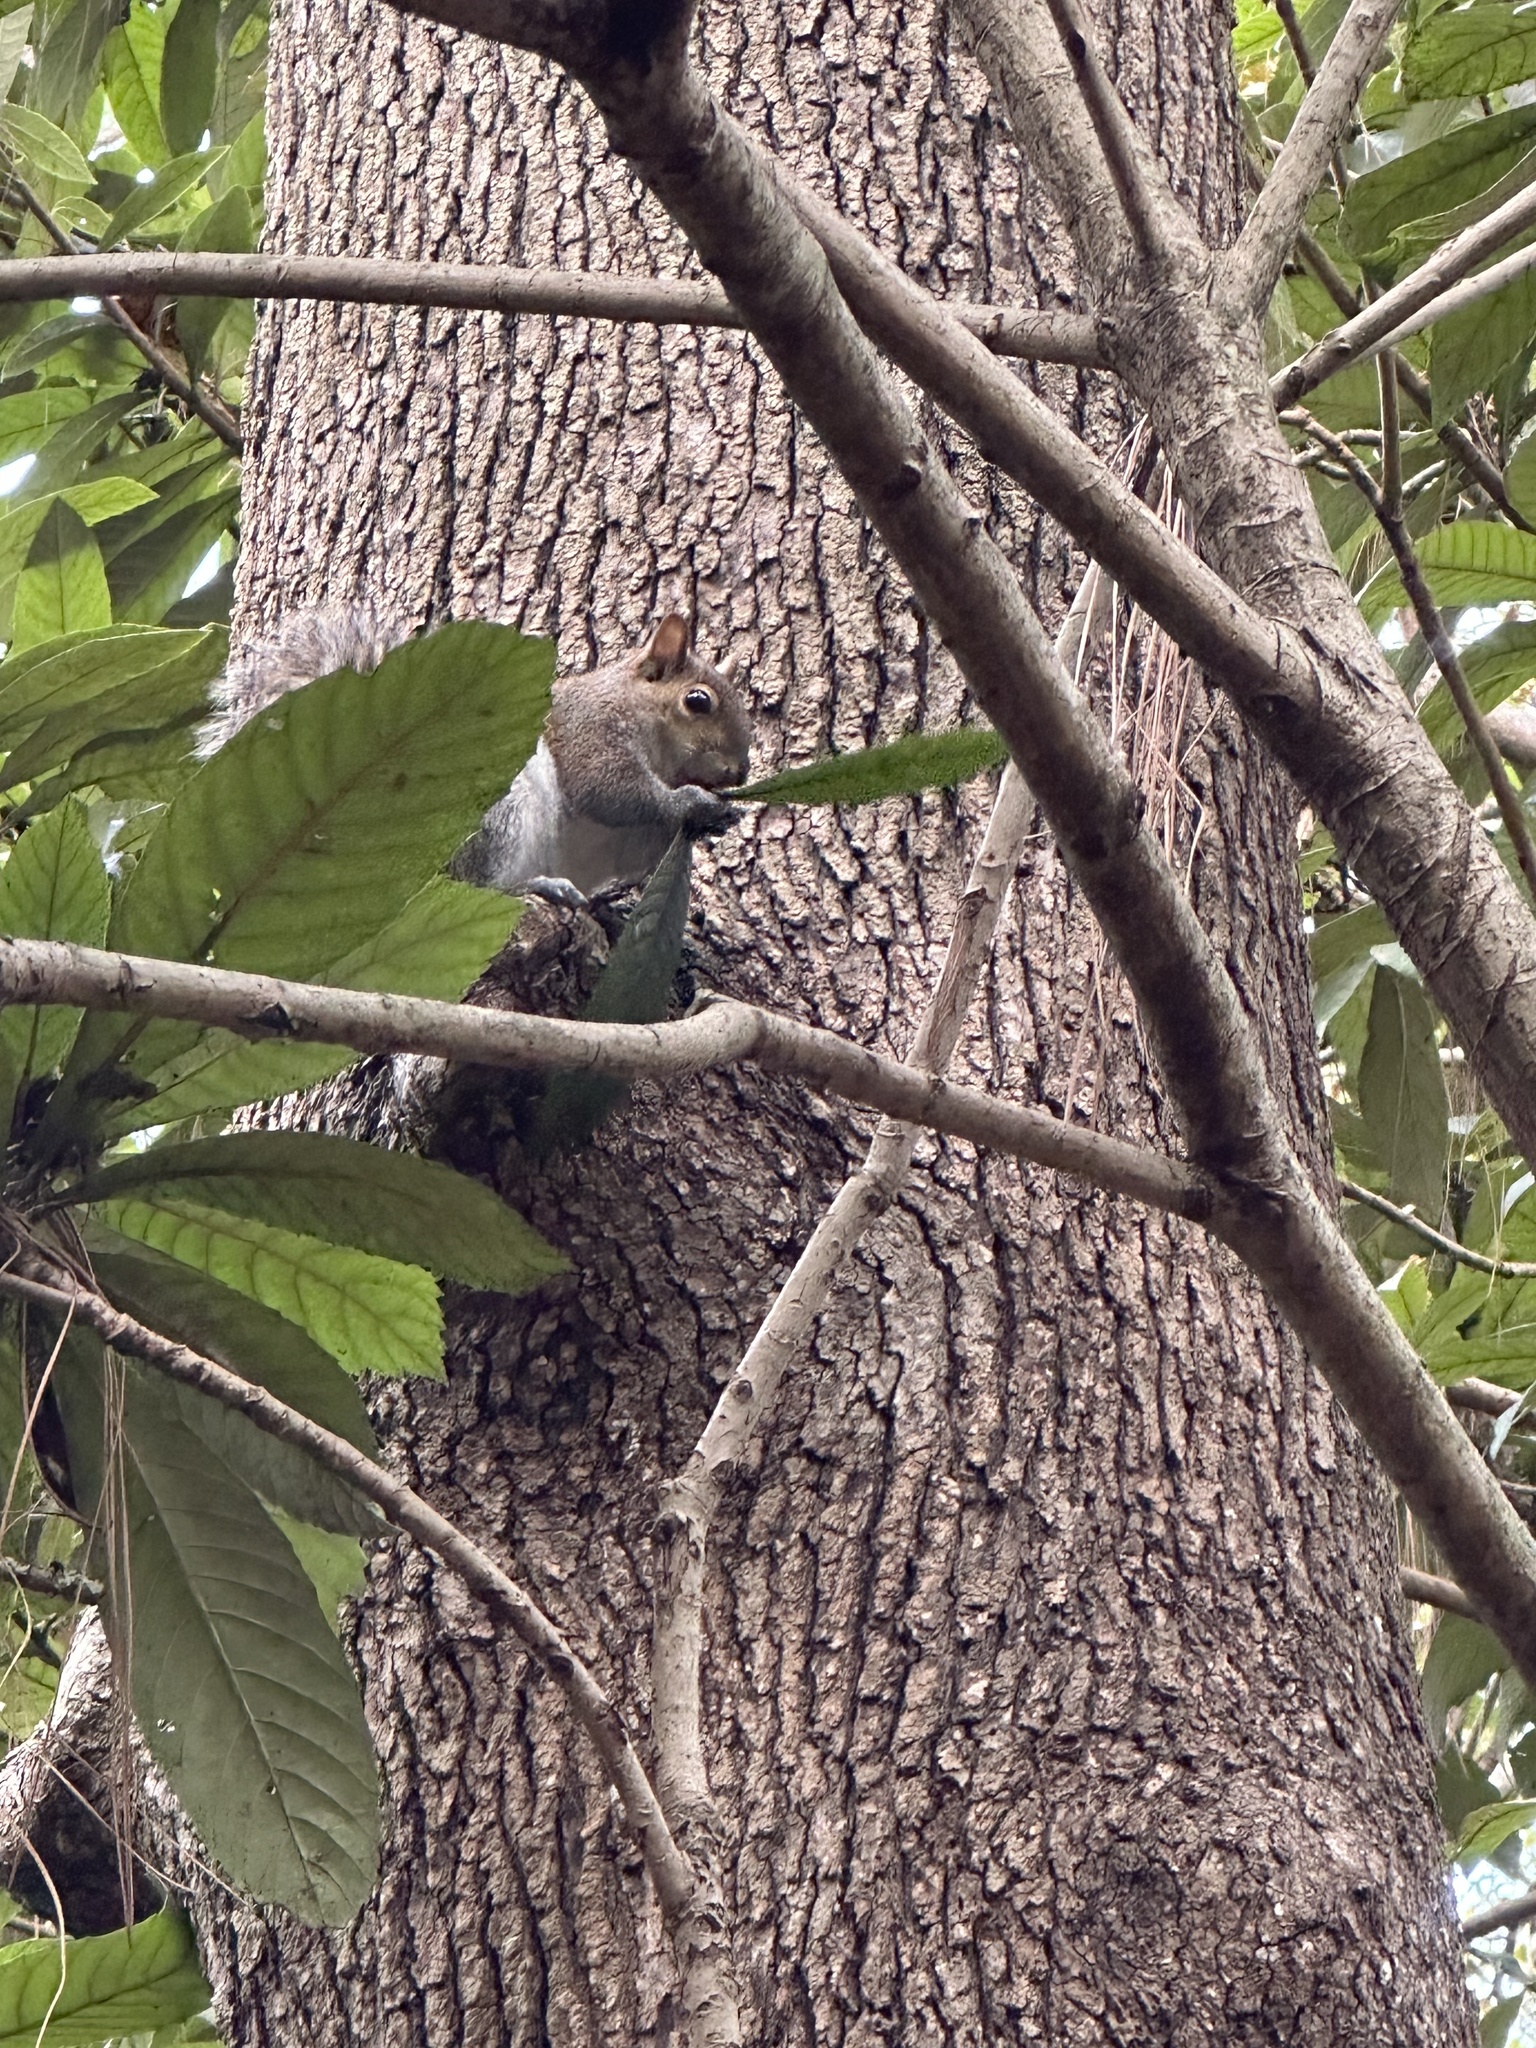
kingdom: Animalia
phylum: Chordata
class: Mammalia
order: Rodentia
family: Sciuridae
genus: Sciurus
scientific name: Sciurus carolinensis
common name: Eastern gray squirrel
